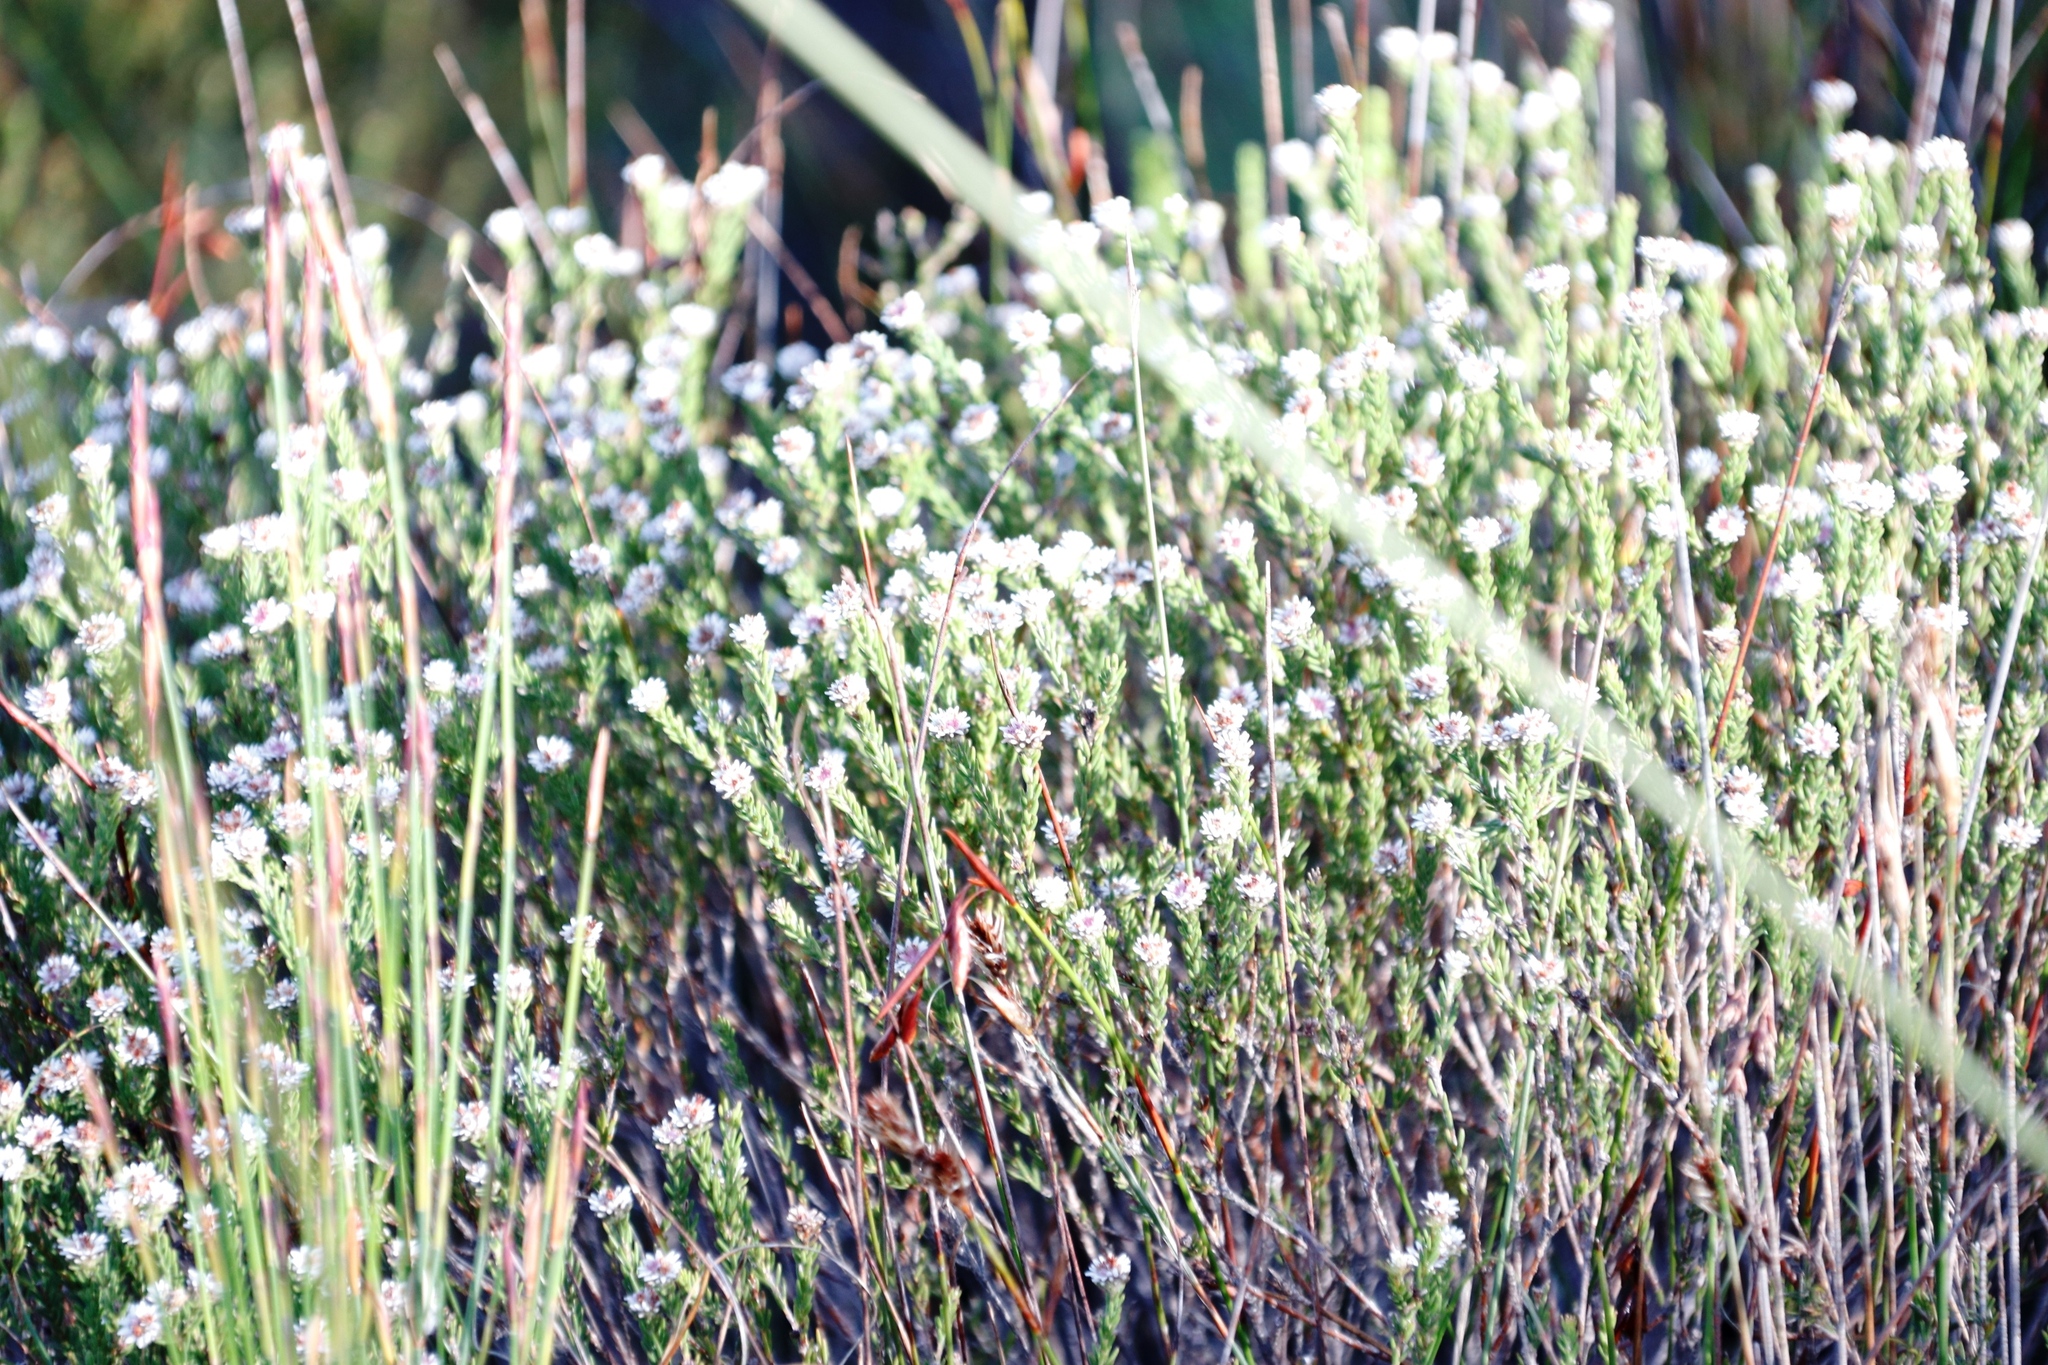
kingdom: Plantae
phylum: Tracheophyta
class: Magnoliopsida
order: Bruniales
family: Bruniaceae
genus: Staavia
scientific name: Staavia radiata
